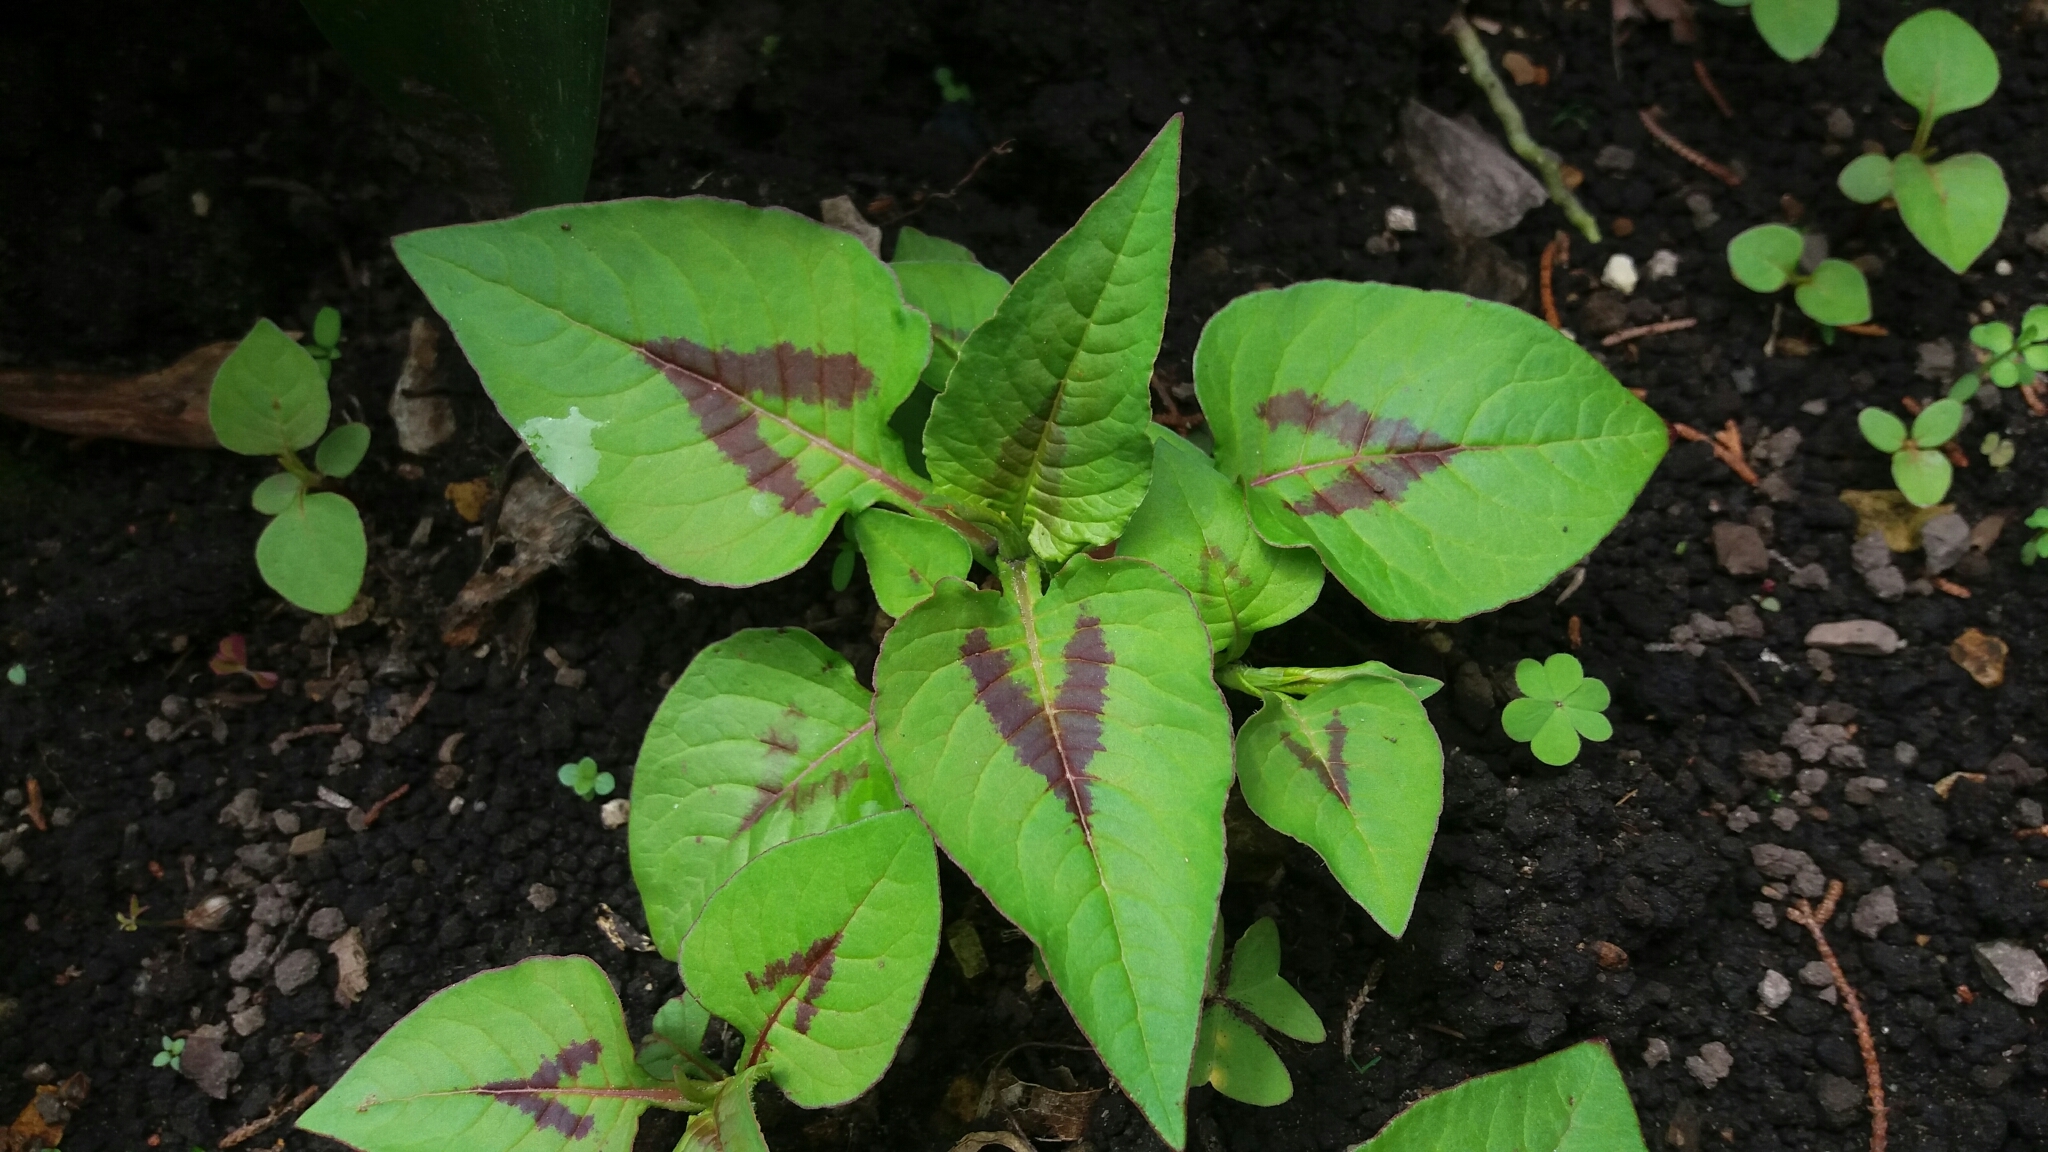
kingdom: Plantae
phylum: Tracheophyta
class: Magnoliopsida
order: Caryophyllales
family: Polygonaceae
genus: Persicaria
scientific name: Persicaria nepalensis
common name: Nepal persicaria
